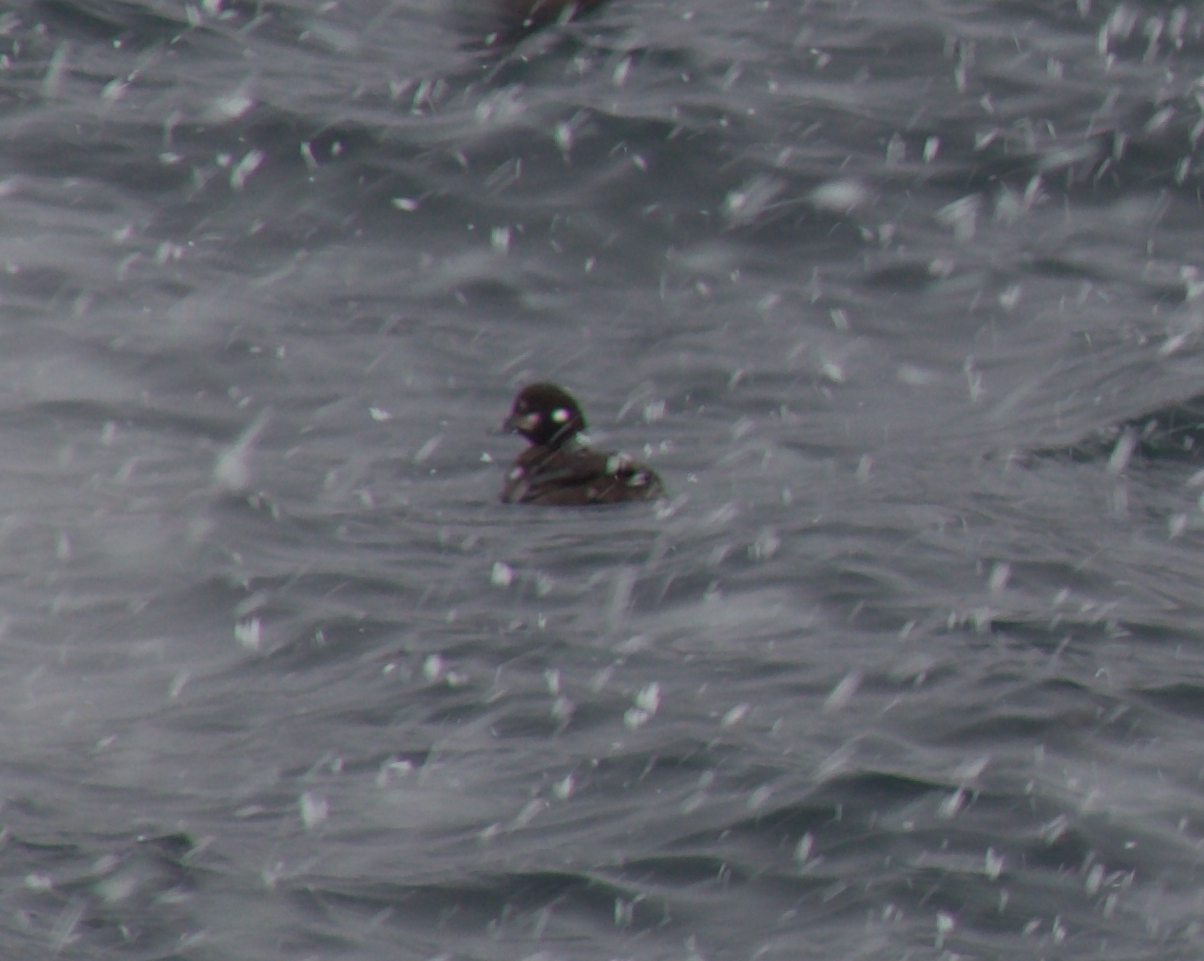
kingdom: Animalia
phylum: Chordata
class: Aves
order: Anseriformes
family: Anatidae
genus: Histrionicus
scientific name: Histrionicus histrionicus
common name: Harlequin duck
